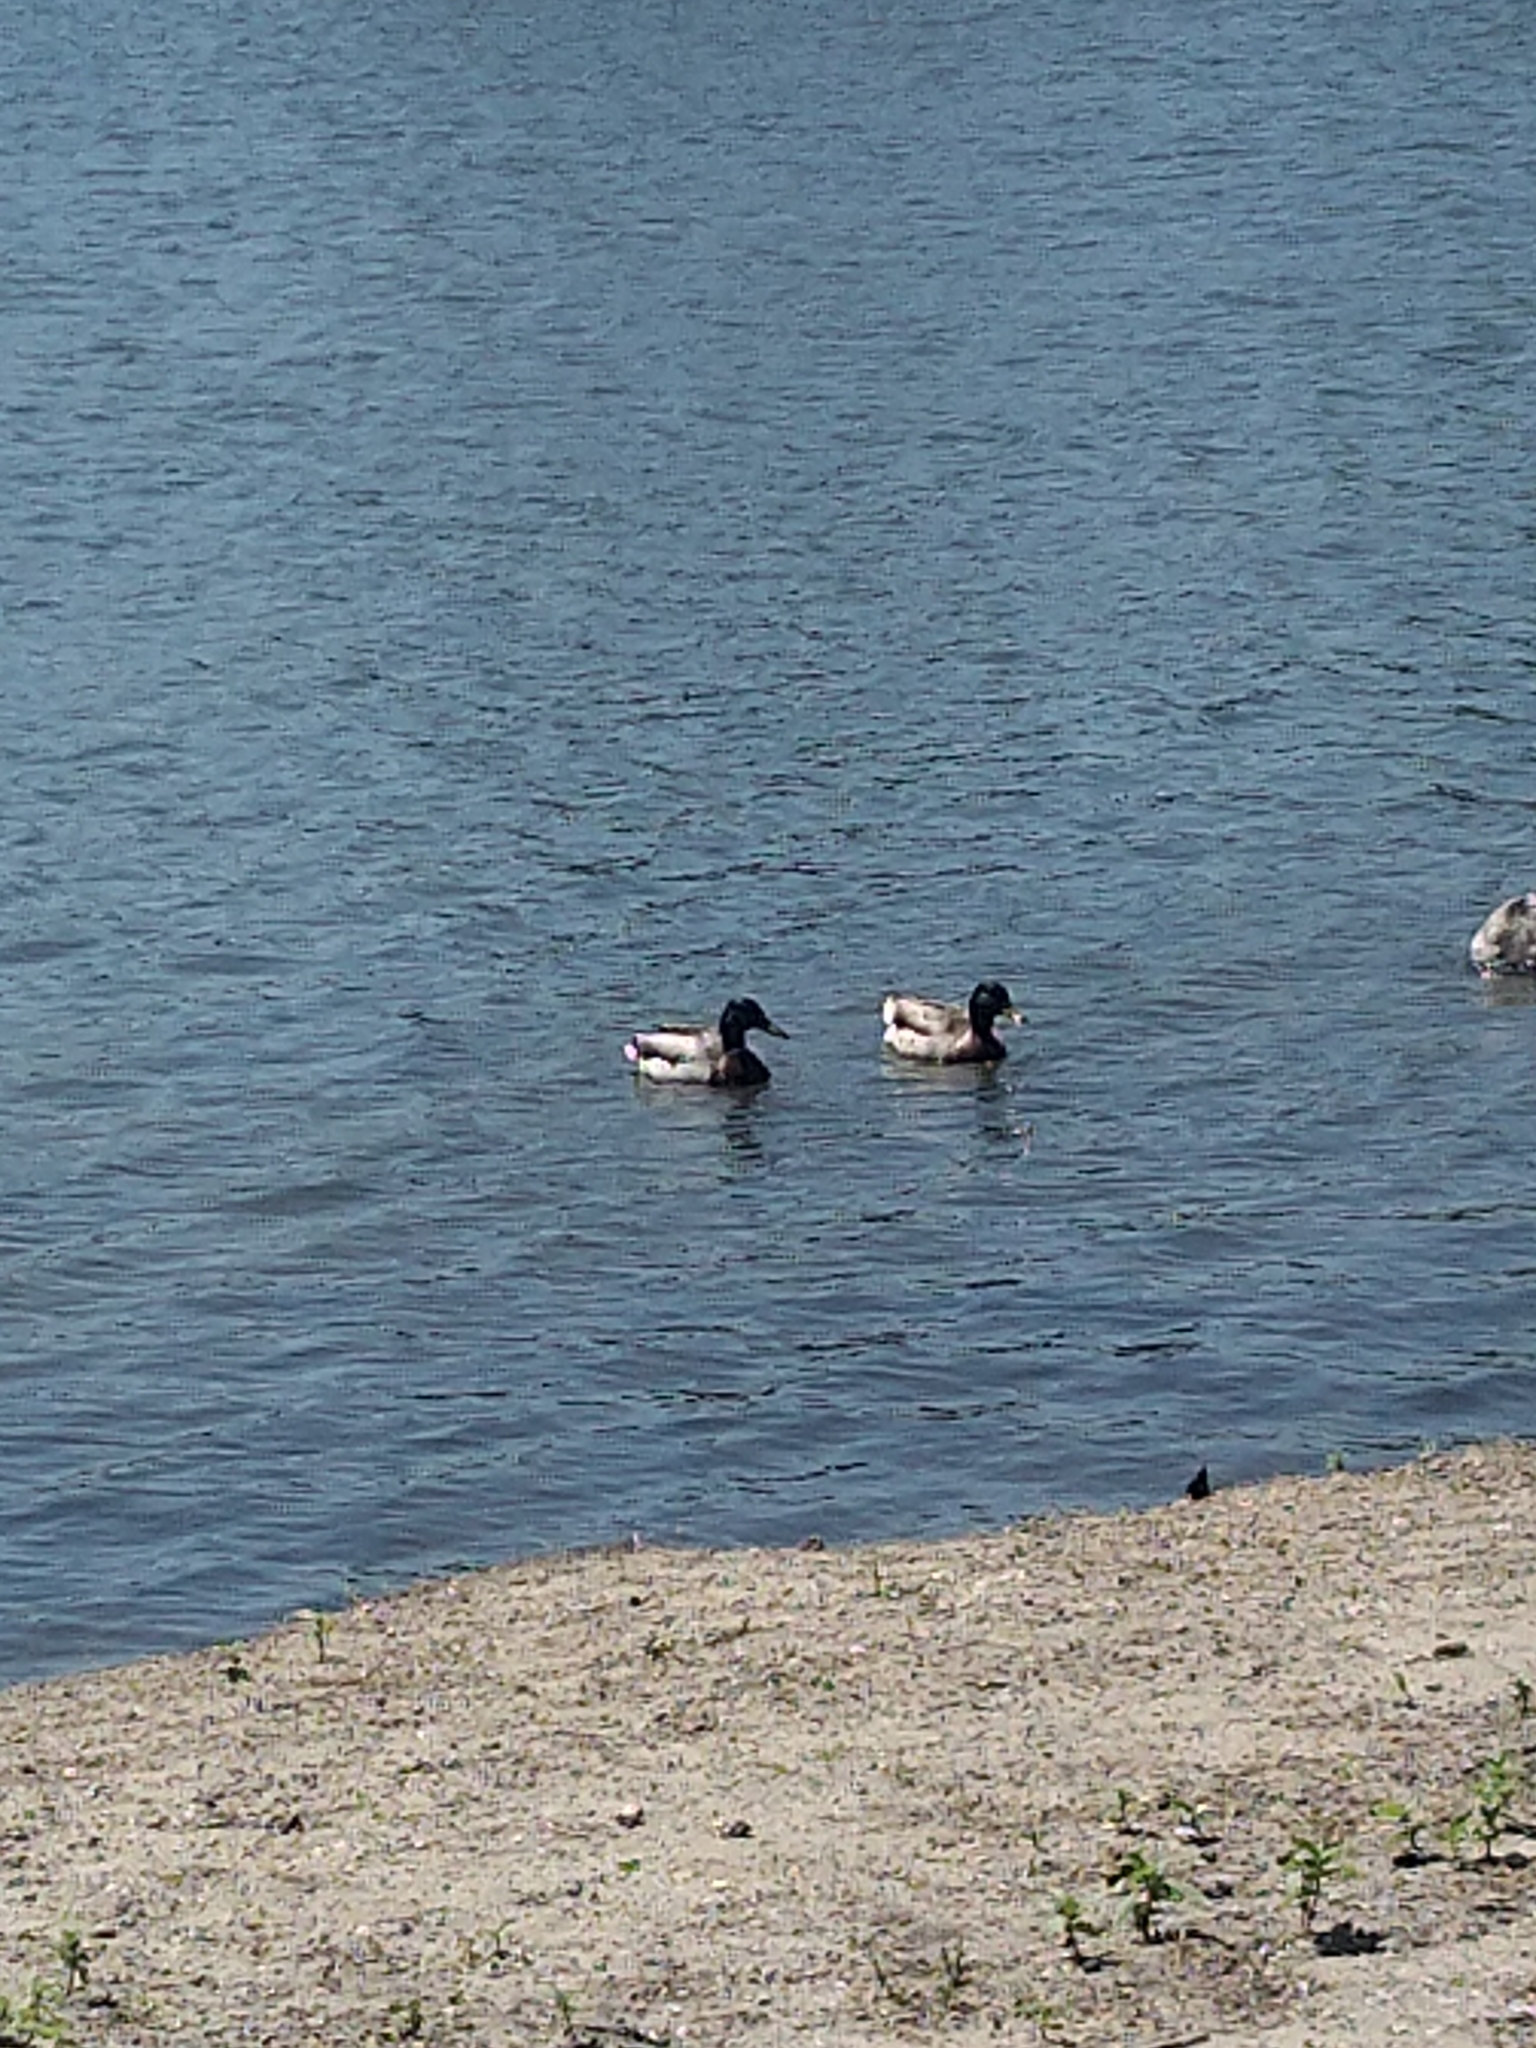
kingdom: Animalia
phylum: Chordata
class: Aves
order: Anseriformes
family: Anatidae
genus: Anas
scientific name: Anas platyrhynchos
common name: Mallard
